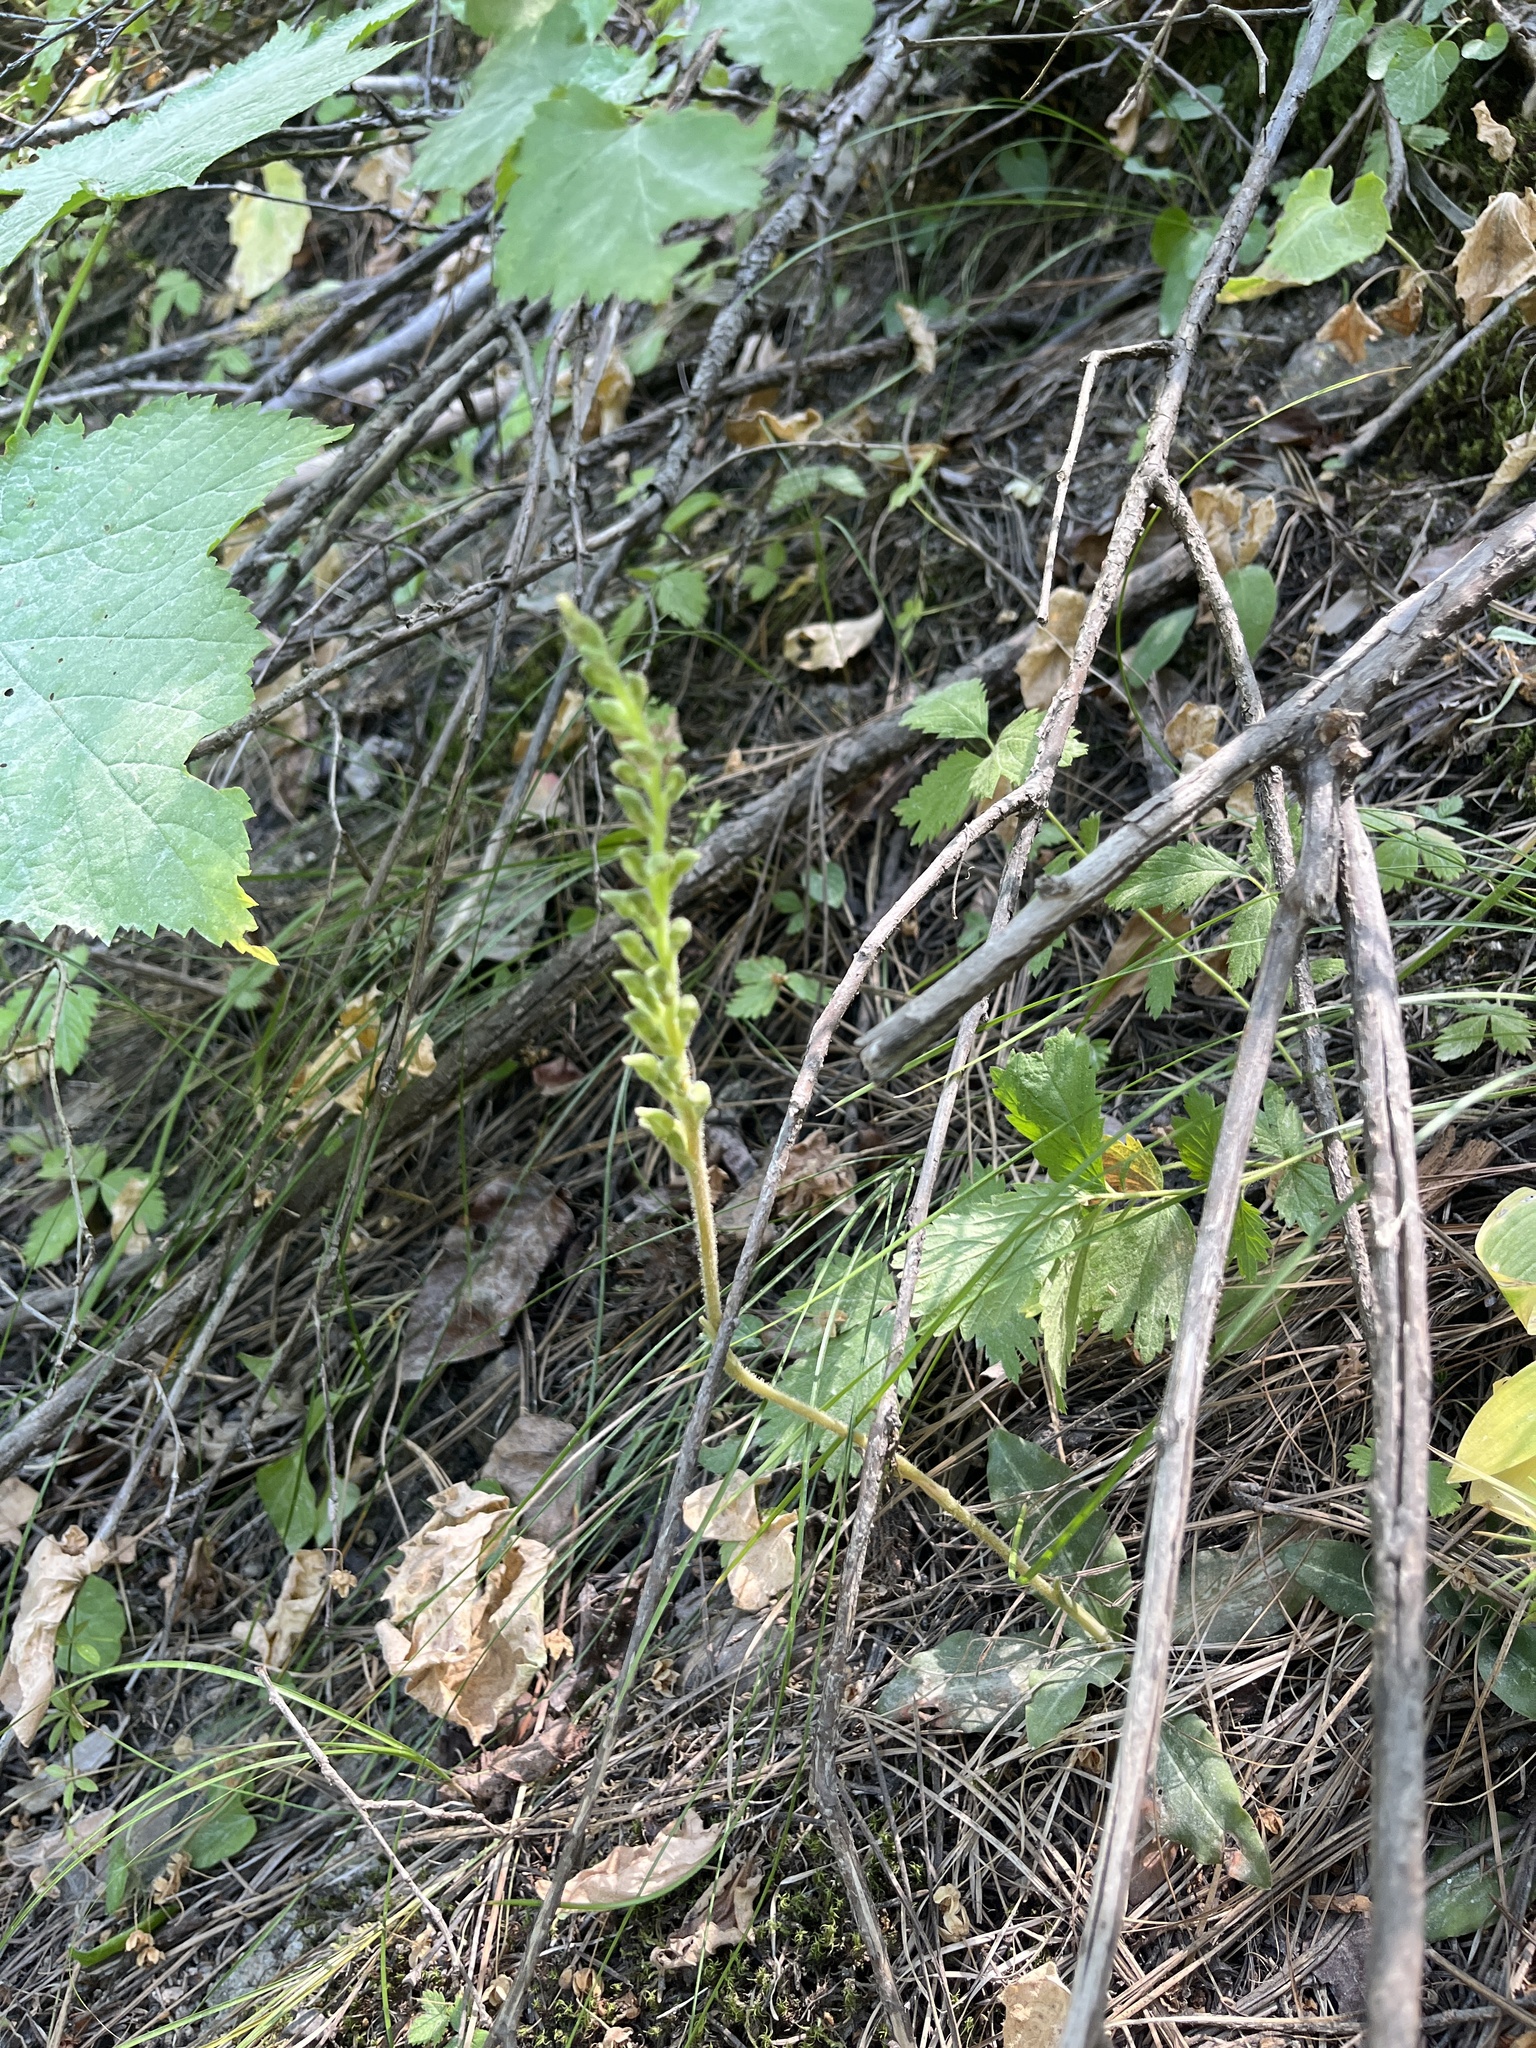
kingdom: Plantae
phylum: Tracheophyta
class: Liliopsida
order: Asparagales
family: Orchidaceae
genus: Goodyera
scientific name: Goodyera oblongifolia
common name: Giant rattlesnake-plantain
